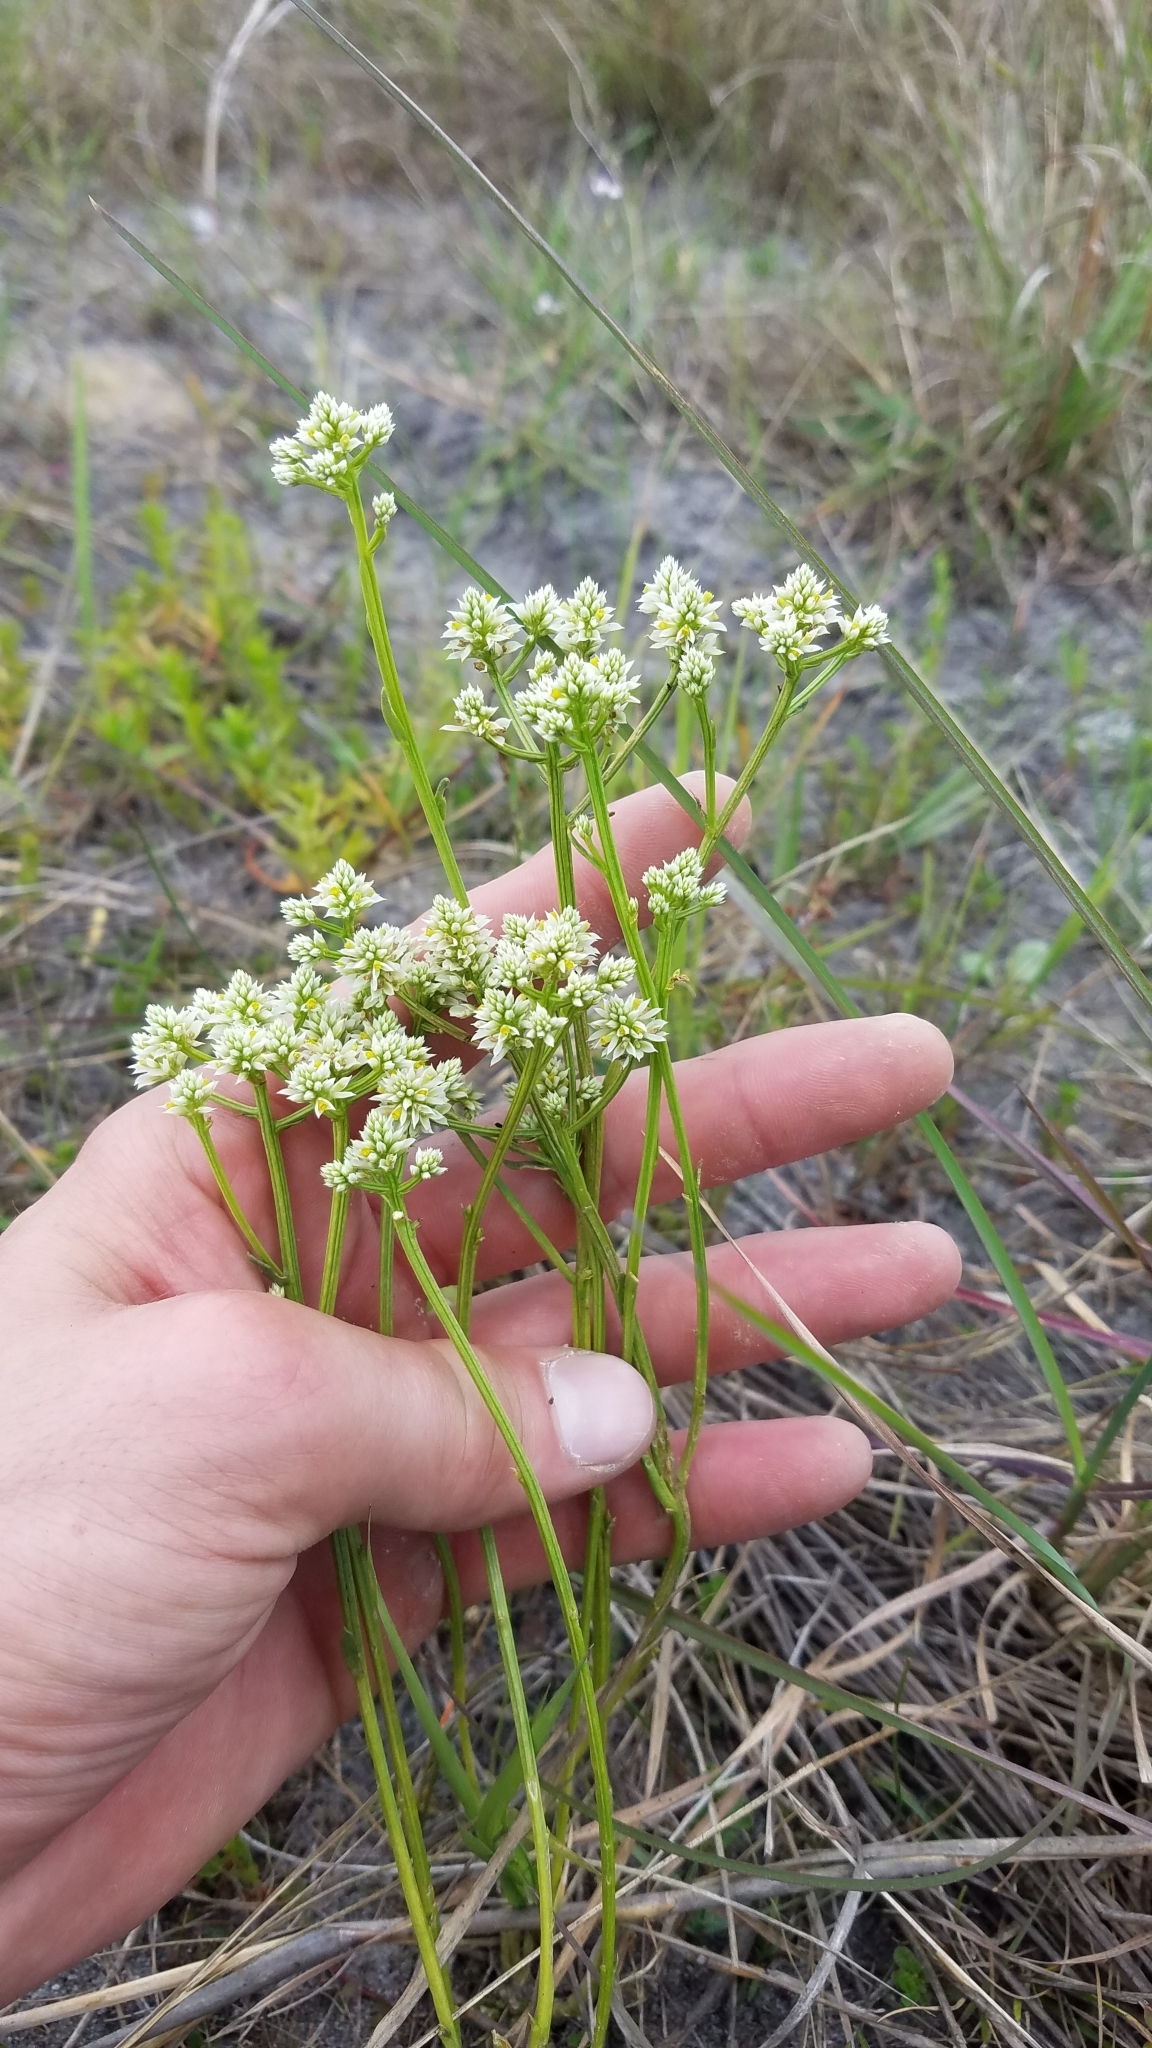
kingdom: Plantae
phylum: Tracheophyta
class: Magnoliopsida
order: Fabales
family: Polygalaceae
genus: Polygala
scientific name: Polygala baldwinii
